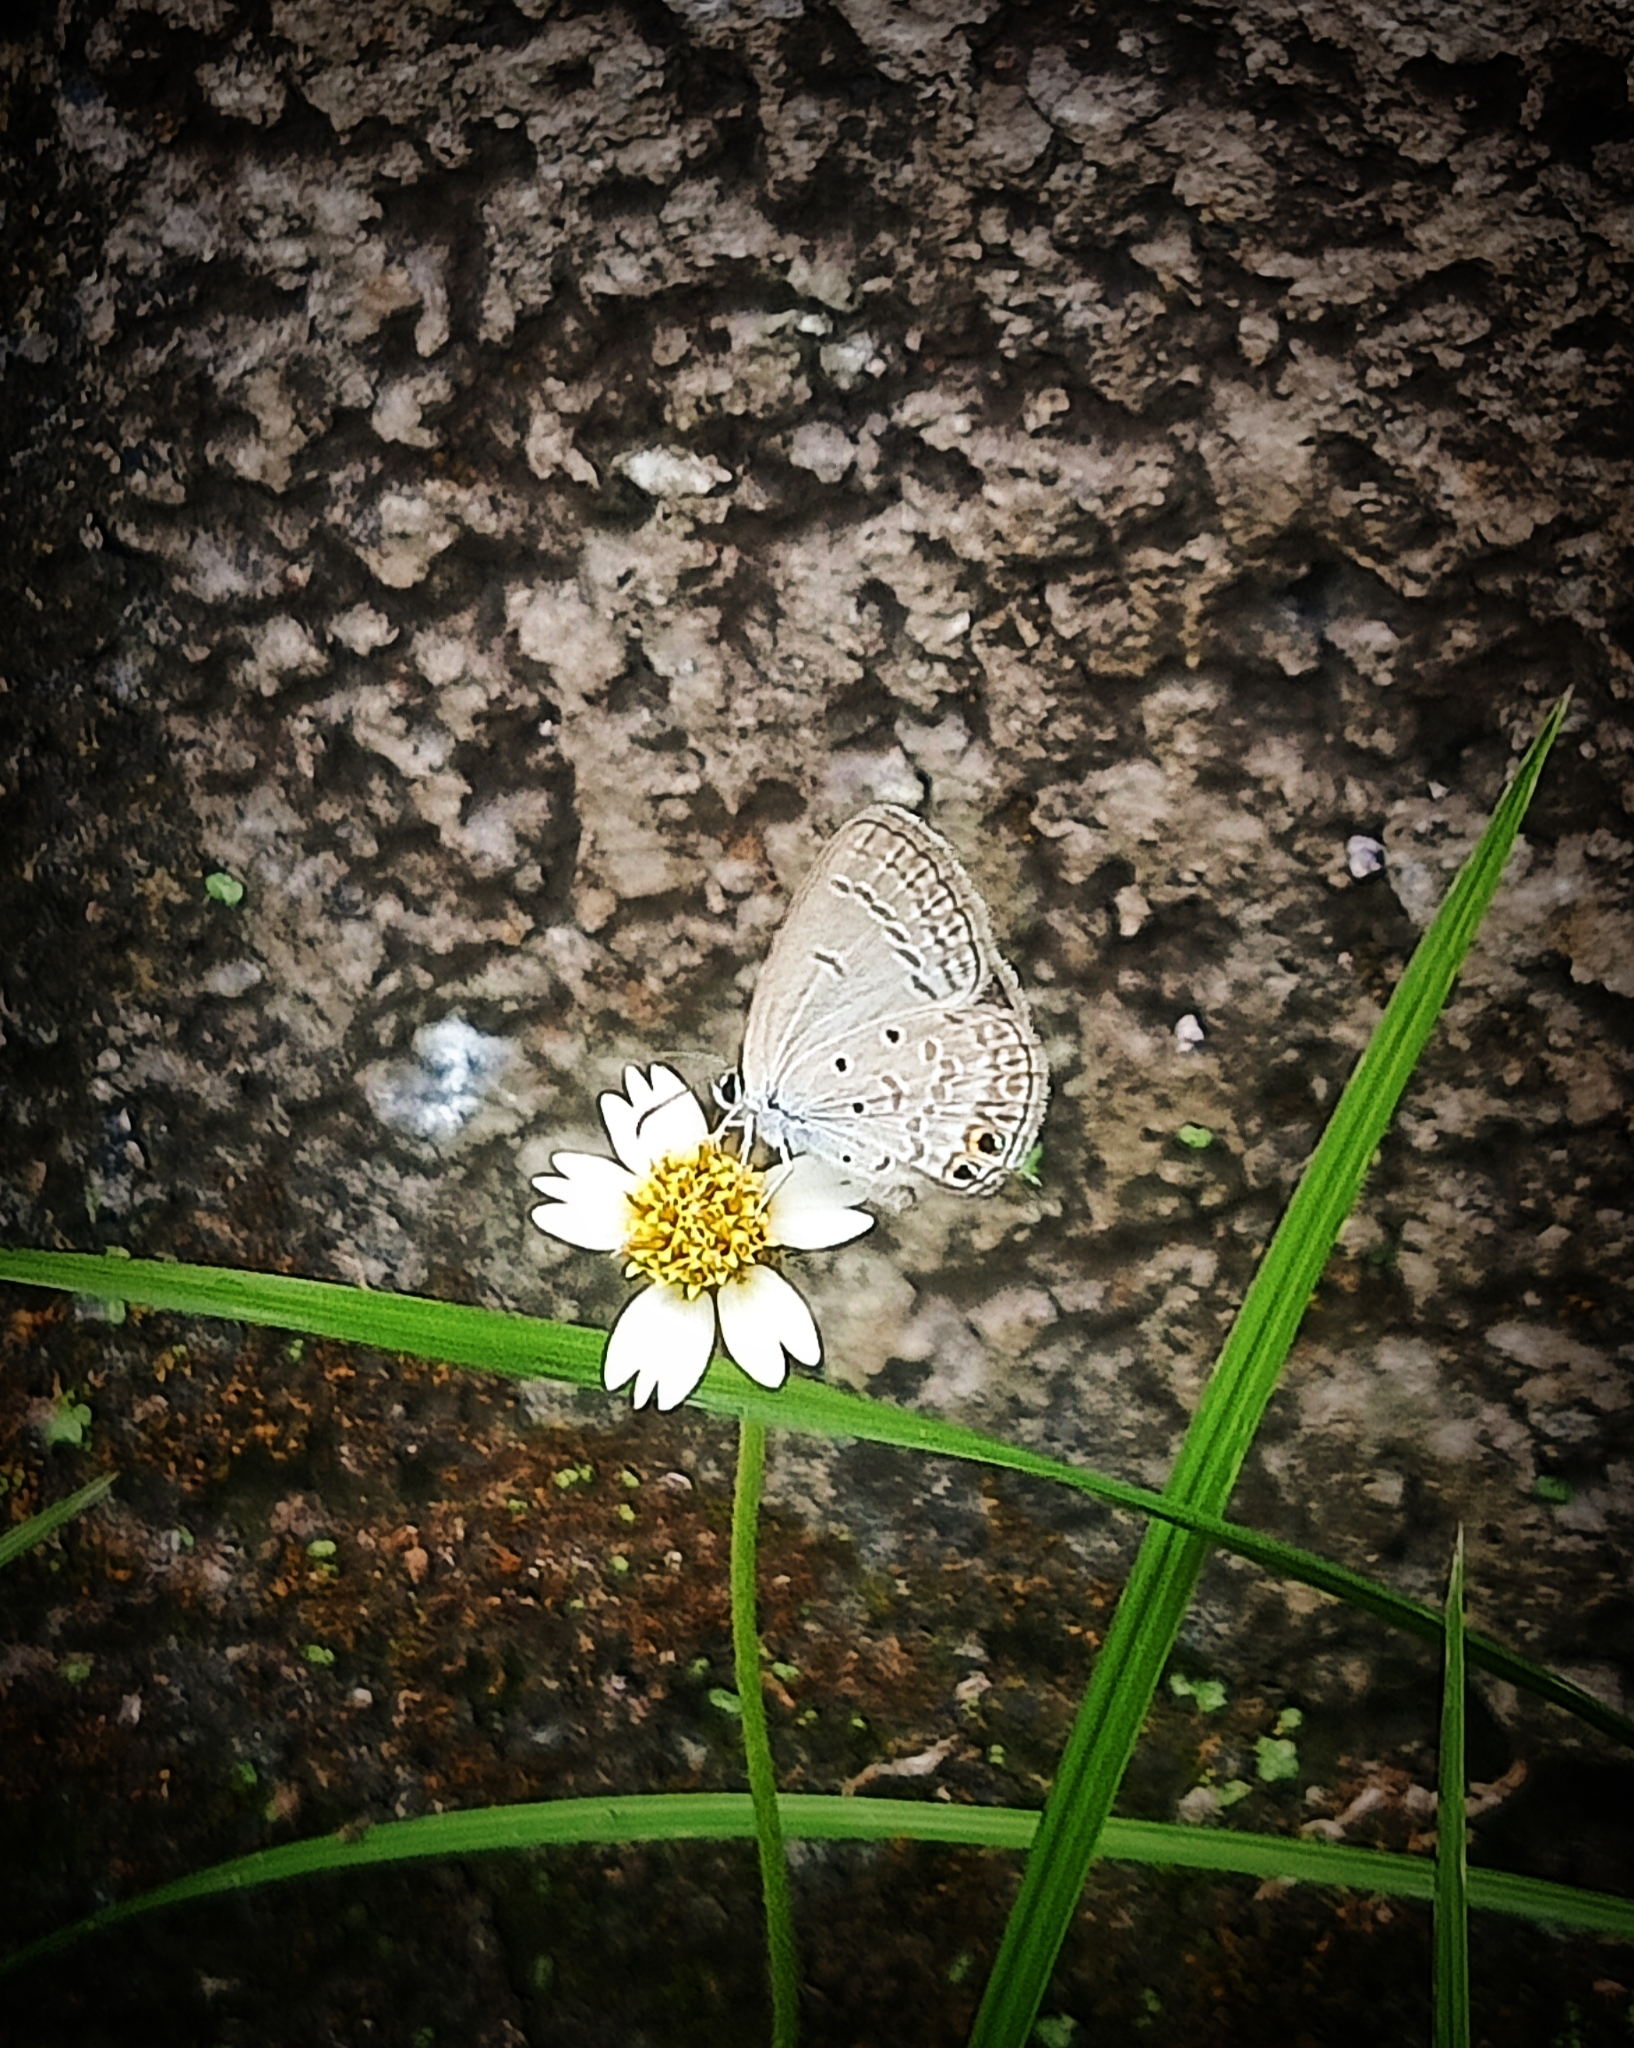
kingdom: Animalia
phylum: Arthropoda
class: Insecta
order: Lepidoptera
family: Lycaenidae
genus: Euchrysops
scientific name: Euchrysops cnejus
